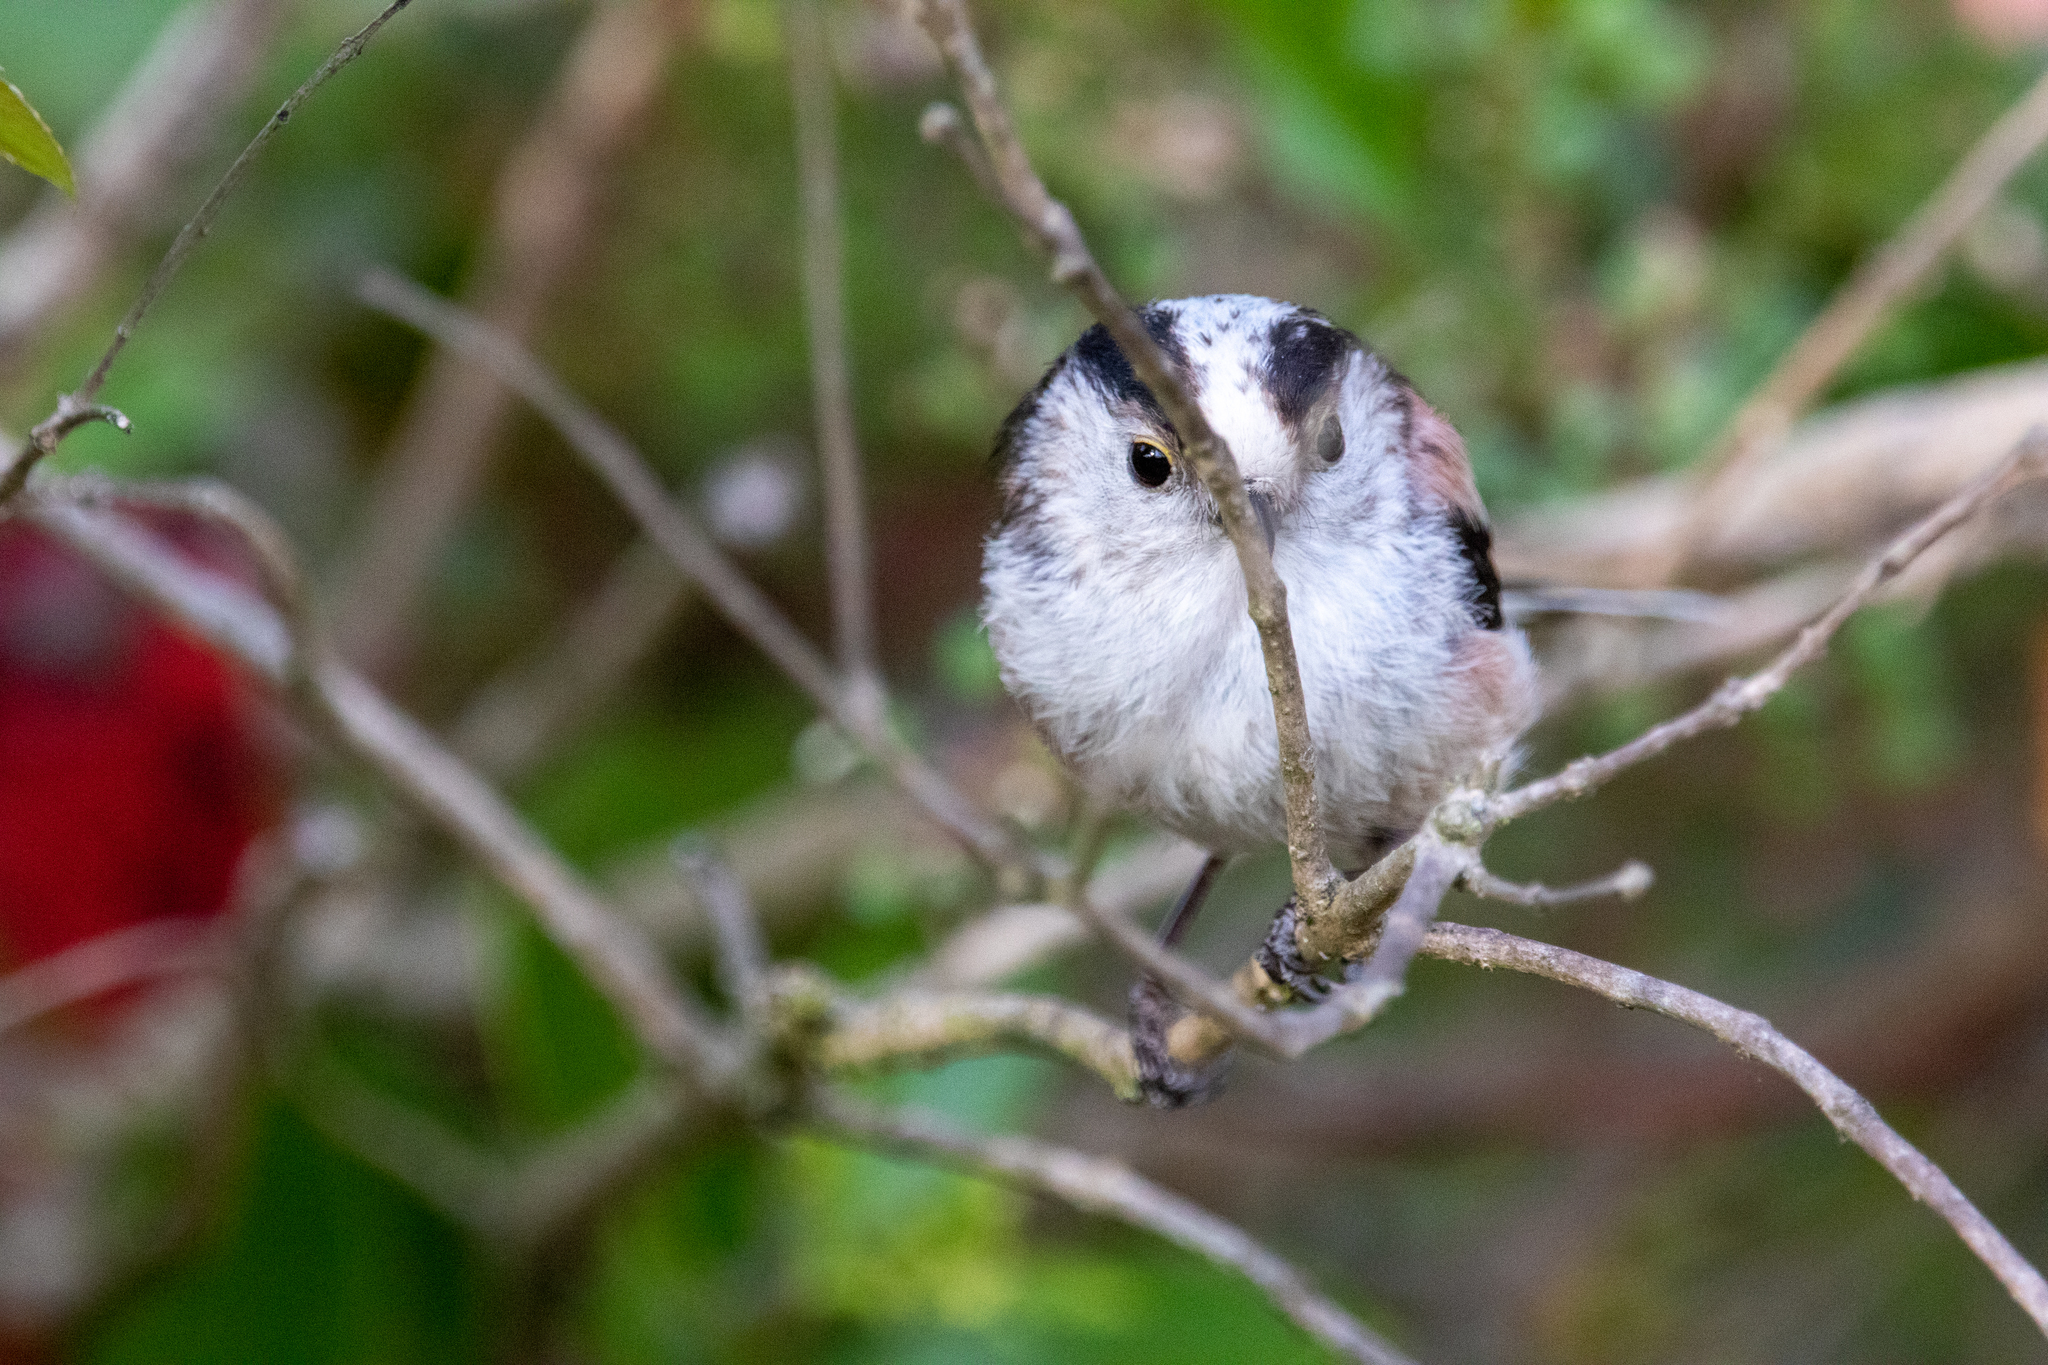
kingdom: Animalia
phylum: Chordata
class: Aves
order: Passeriformes
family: Aegithalidae
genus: Aegithalos
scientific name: Aegithalos caudatus
